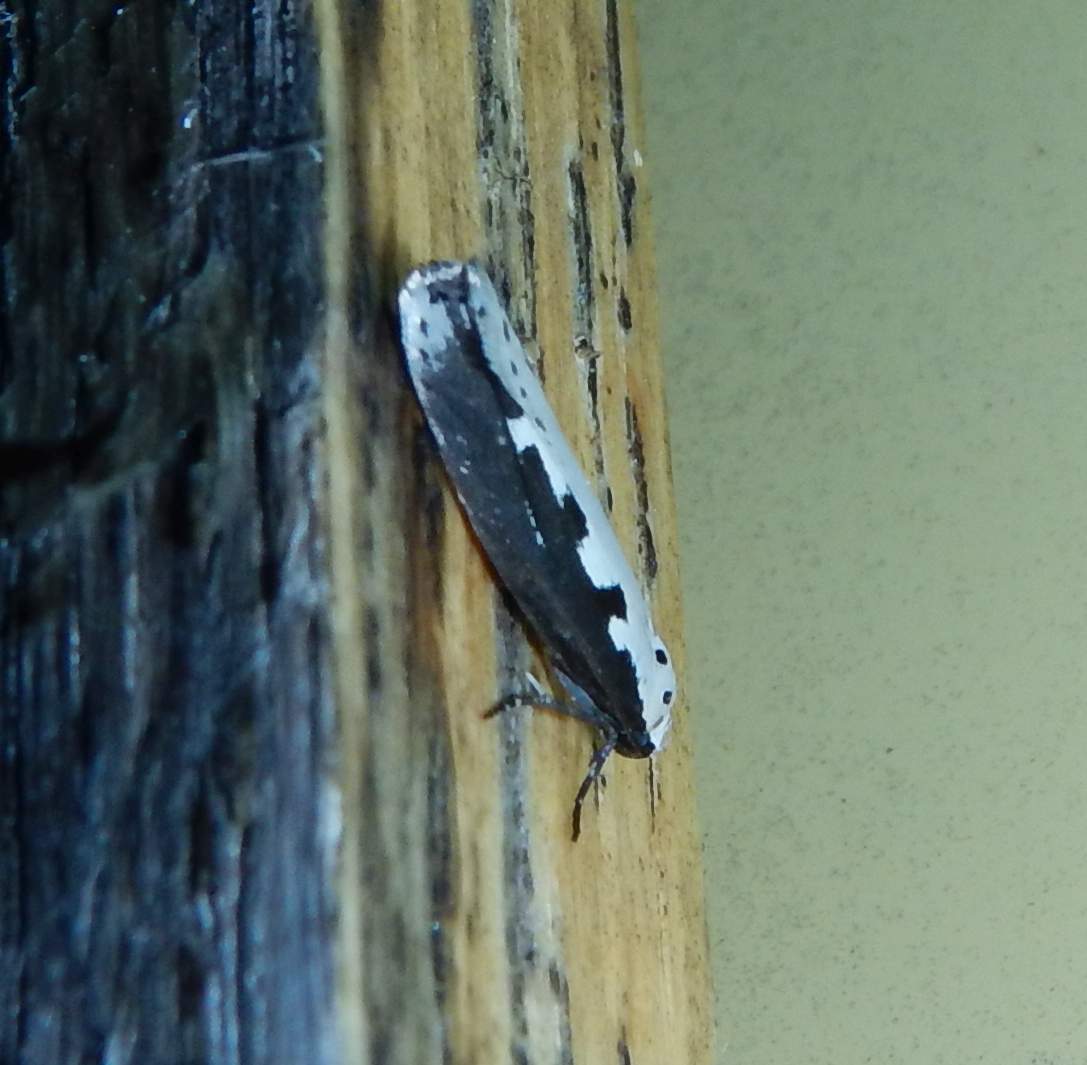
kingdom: Animalia
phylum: Arthropoda
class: Insecta
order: Lepidoptera
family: Ethmiidae
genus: Ethmia
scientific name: Ethmia bipunctella
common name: Bordered ermel
